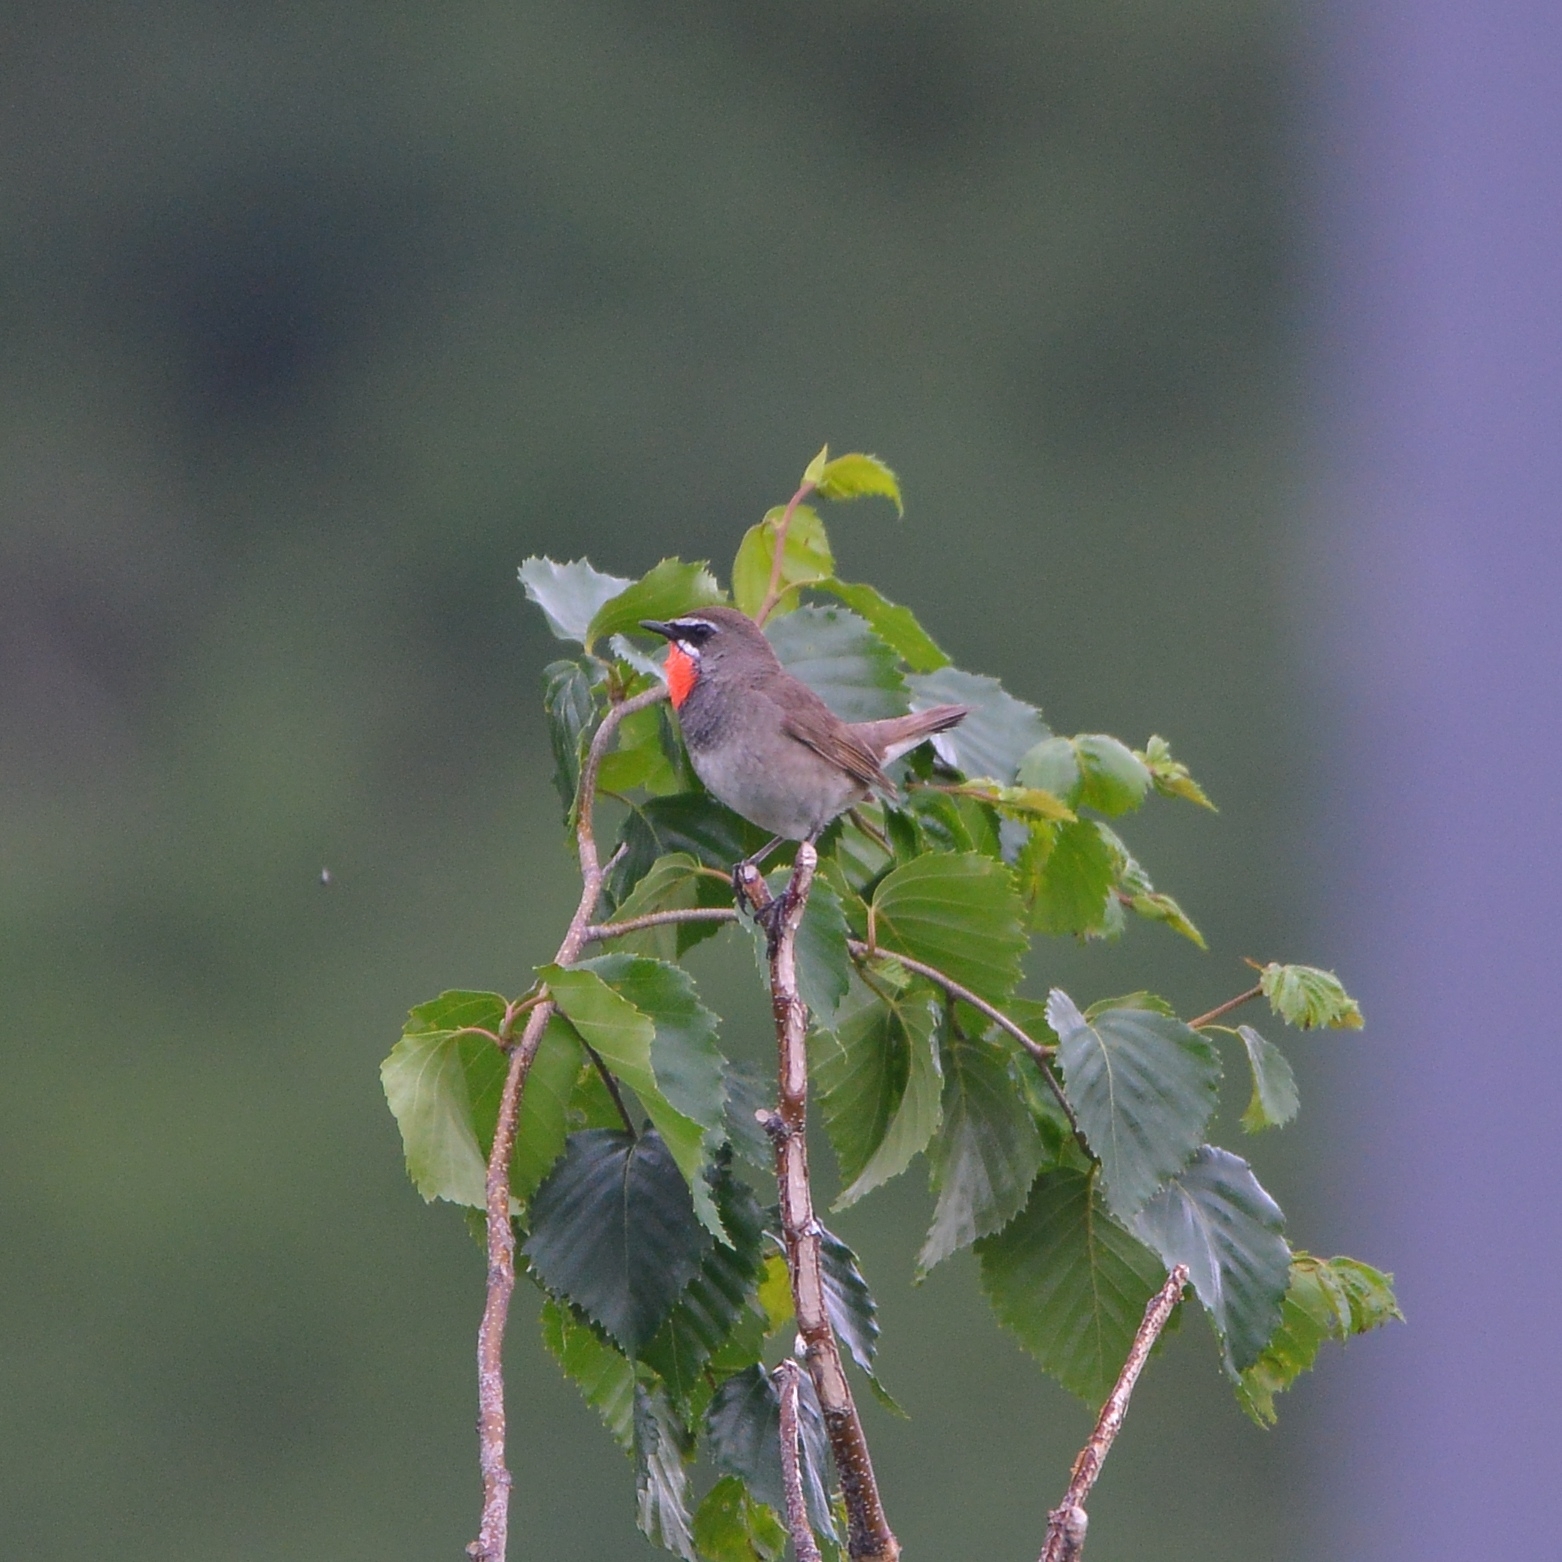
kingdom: Animalia
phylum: Chordata
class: Aves
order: Passeriformes
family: Muscicapidae
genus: Luscinia
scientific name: Luscinia calliope
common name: Siberian rubythroat
